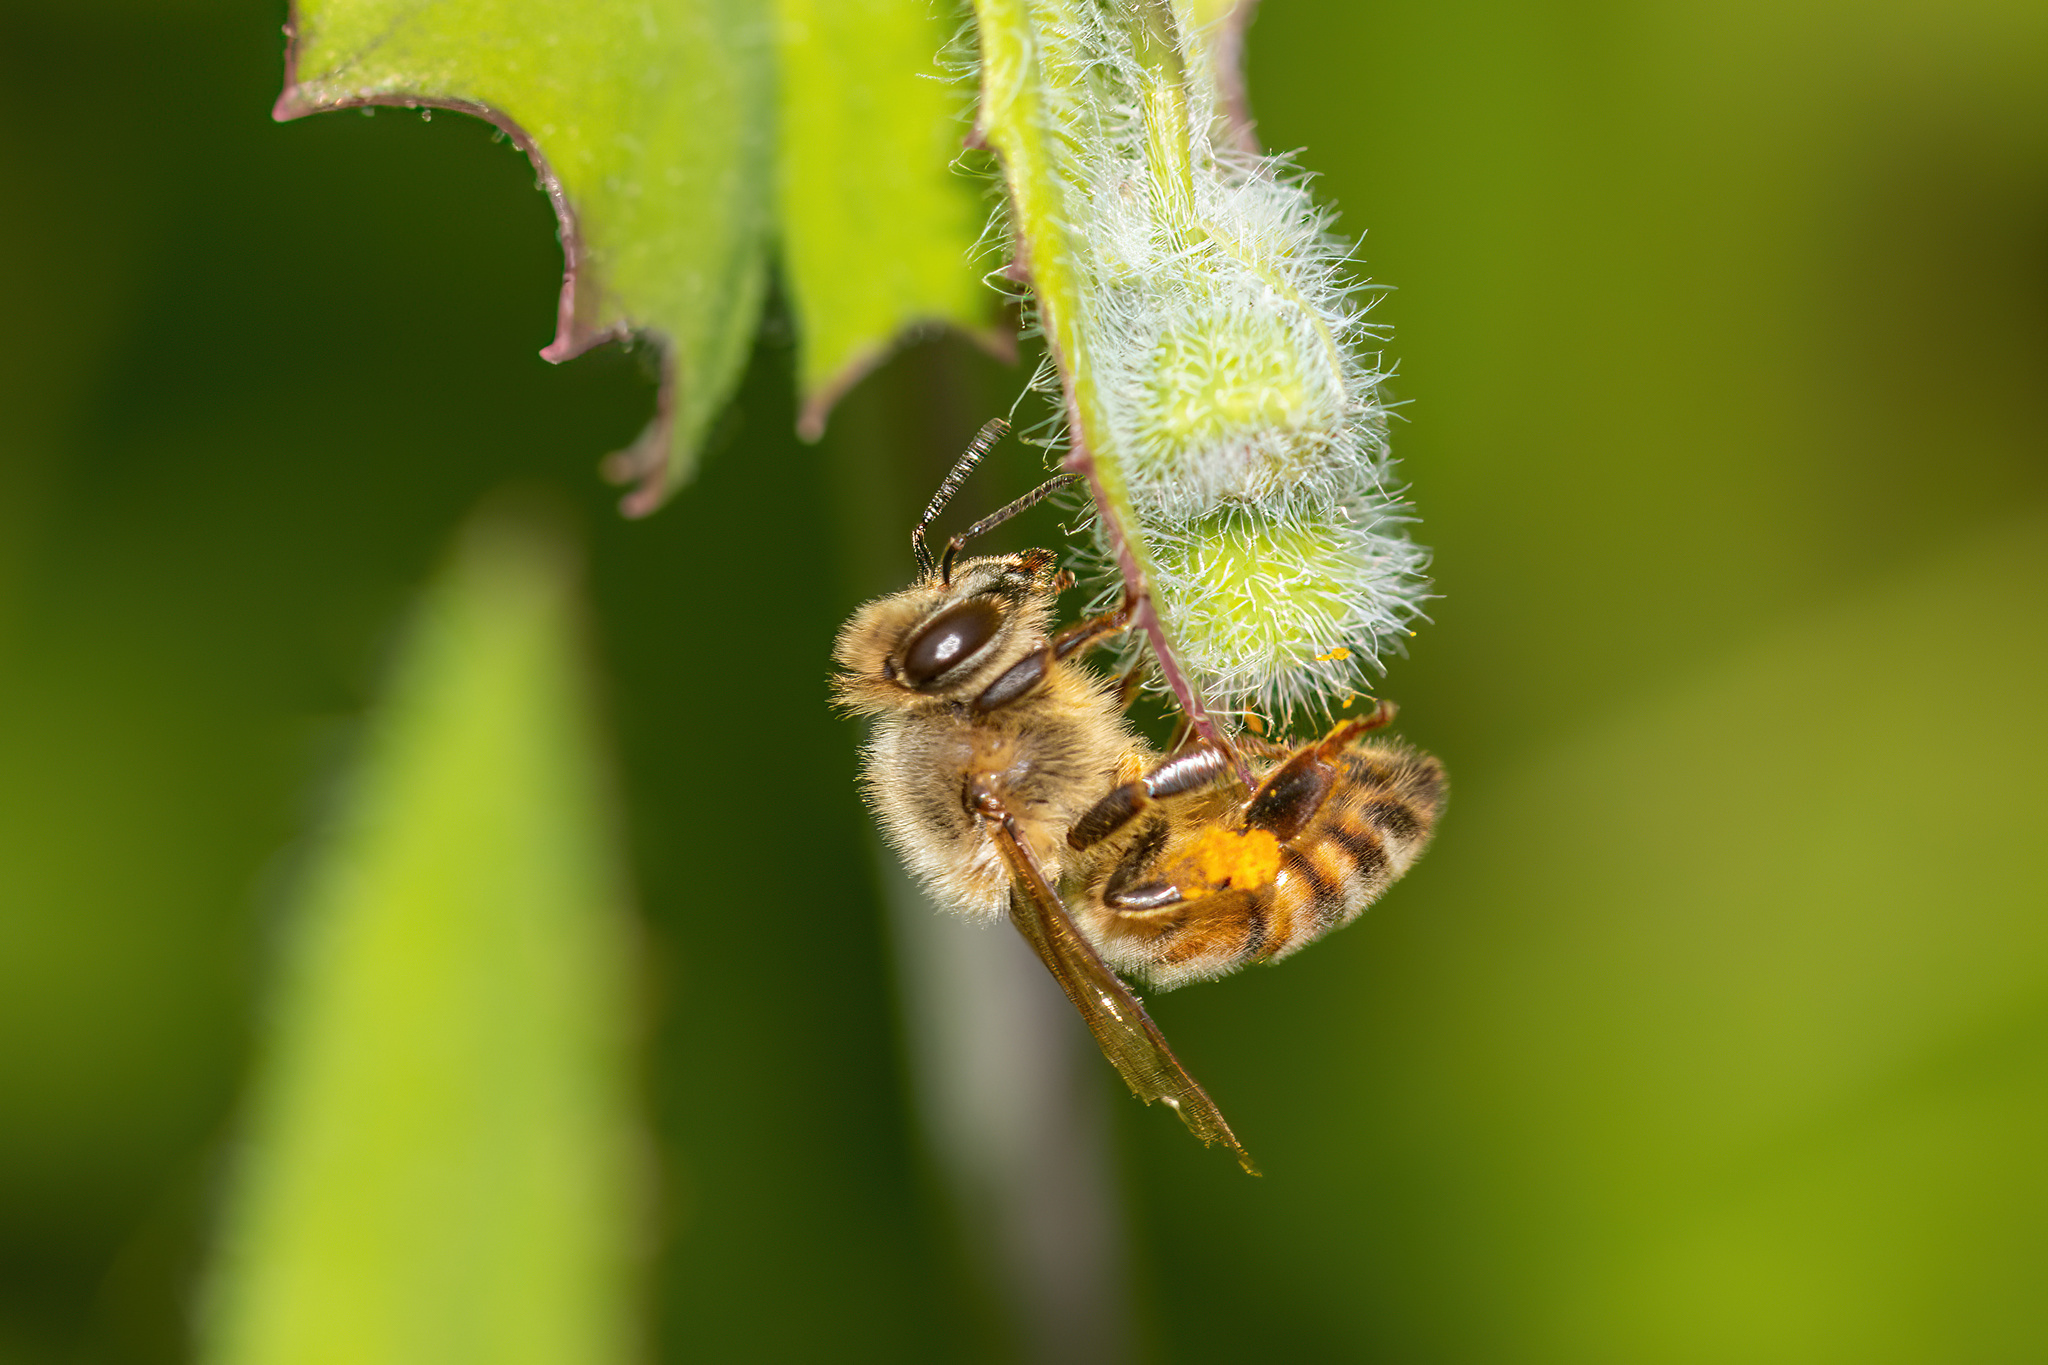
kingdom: Animalia
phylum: Arthropoda
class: Insecta
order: Hymenoptera
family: Apidae
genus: Apis
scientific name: Apis mellifera
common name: Honey bee
